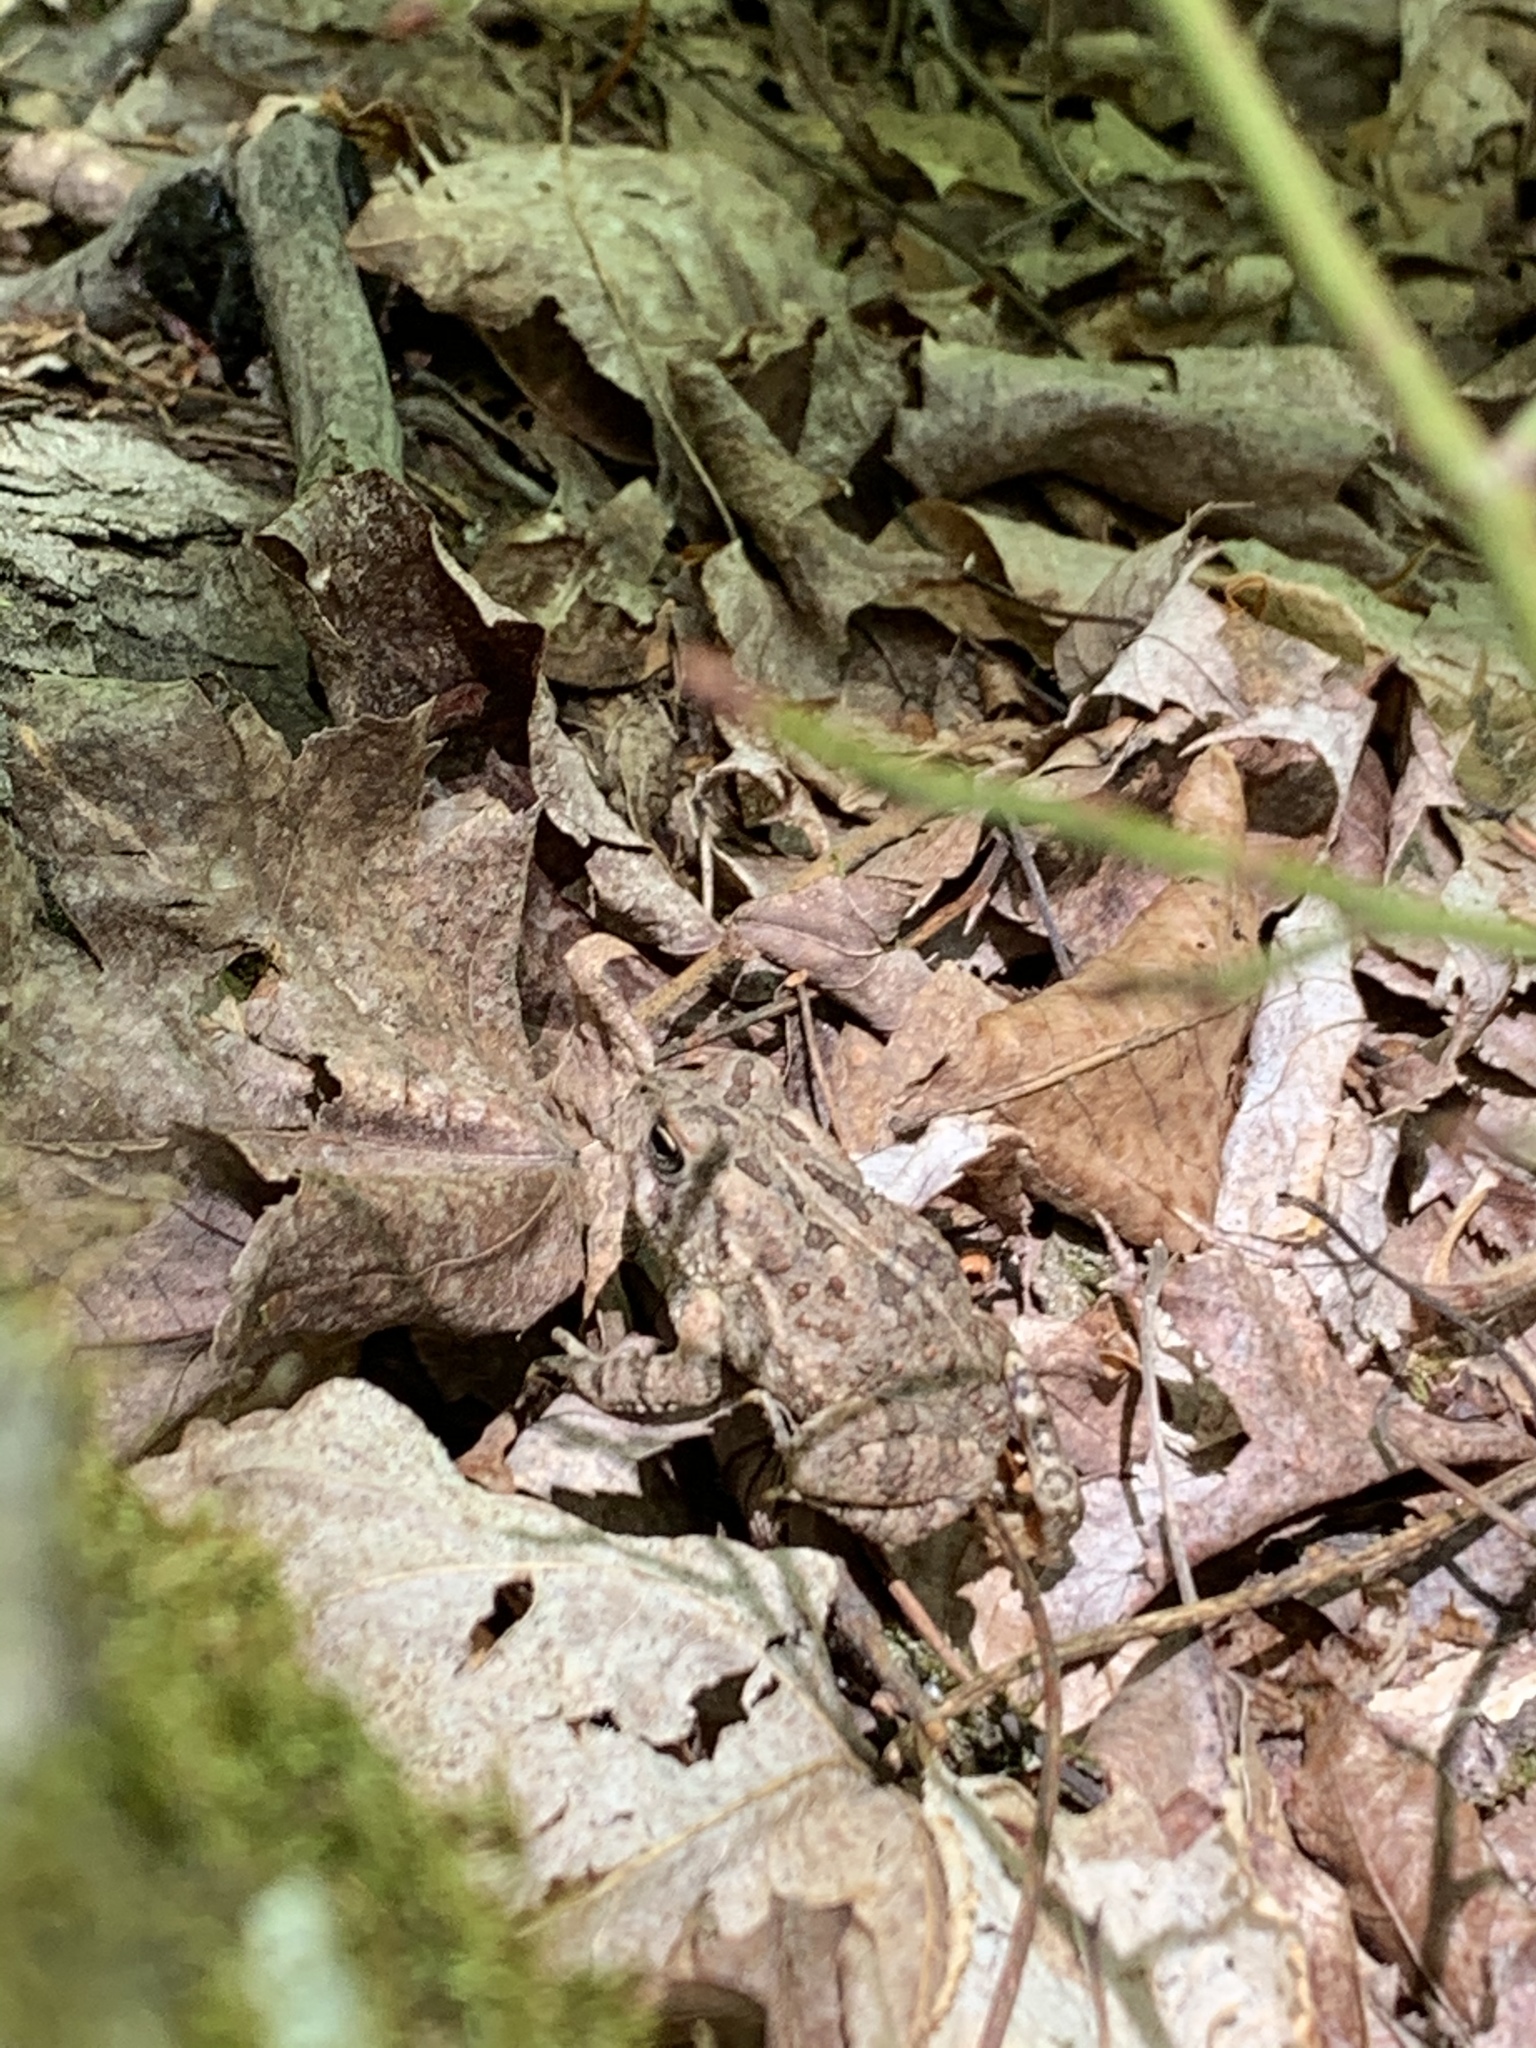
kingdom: Animalia
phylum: Chordata
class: Amphibia
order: Anura
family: Bufonidae
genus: Anaxyrus
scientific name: Anaxyrus fowleri
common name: Fowler's toad
